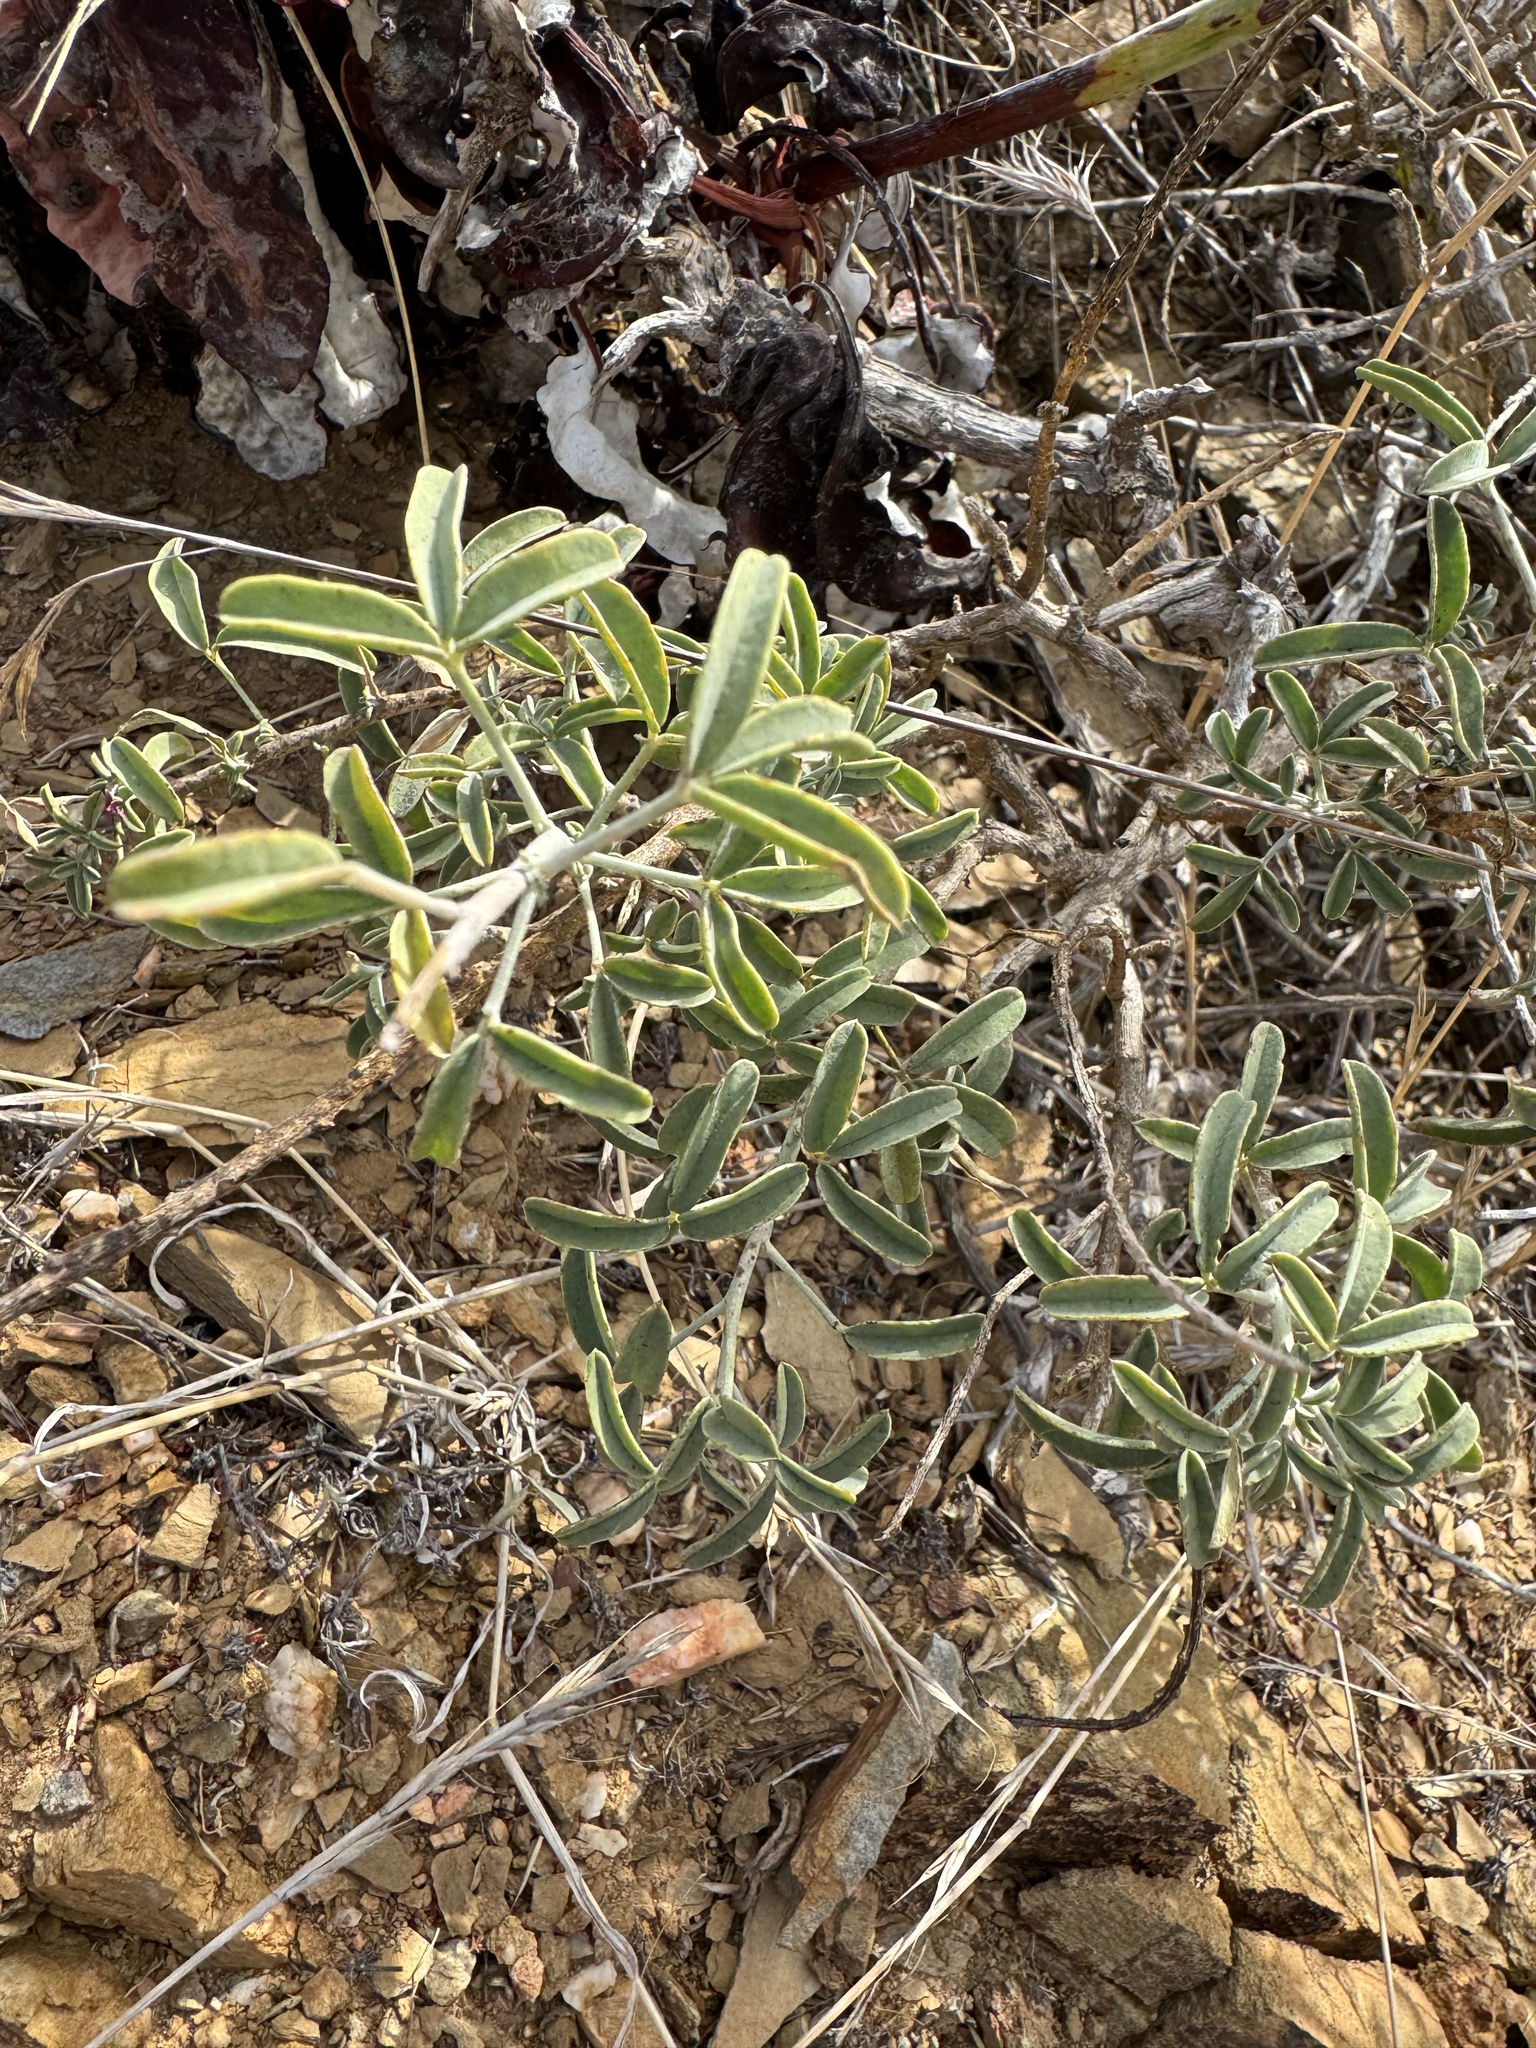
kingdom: Plantae
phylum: Tracheophyta
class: Magnoliopsida
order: Brassicales
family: Cleomaceae
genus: Cleomella
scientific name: Cleomella arborea
